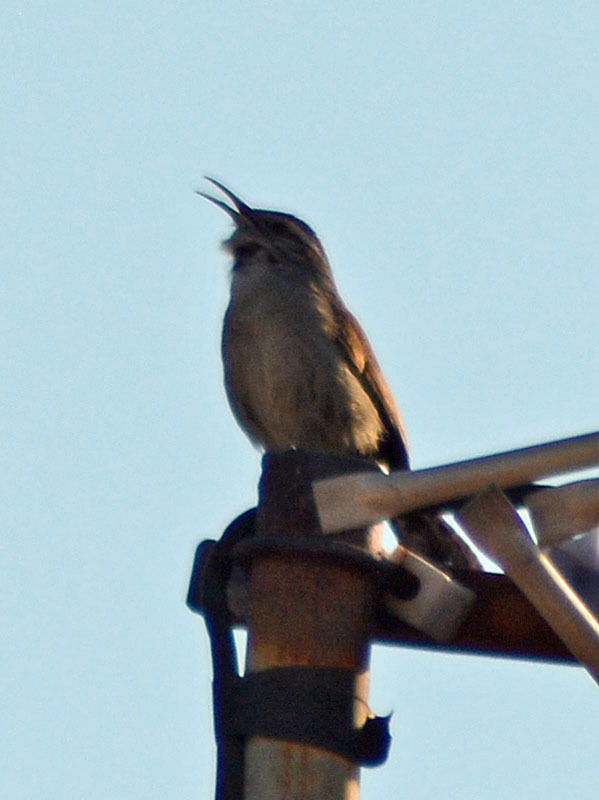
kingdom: Animalia
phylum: Chordata
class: Aves
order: Passeriformes
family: Troglodytidae
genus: Thryomanes
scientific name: Thryomanes bewickii
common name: Bewick's wren
